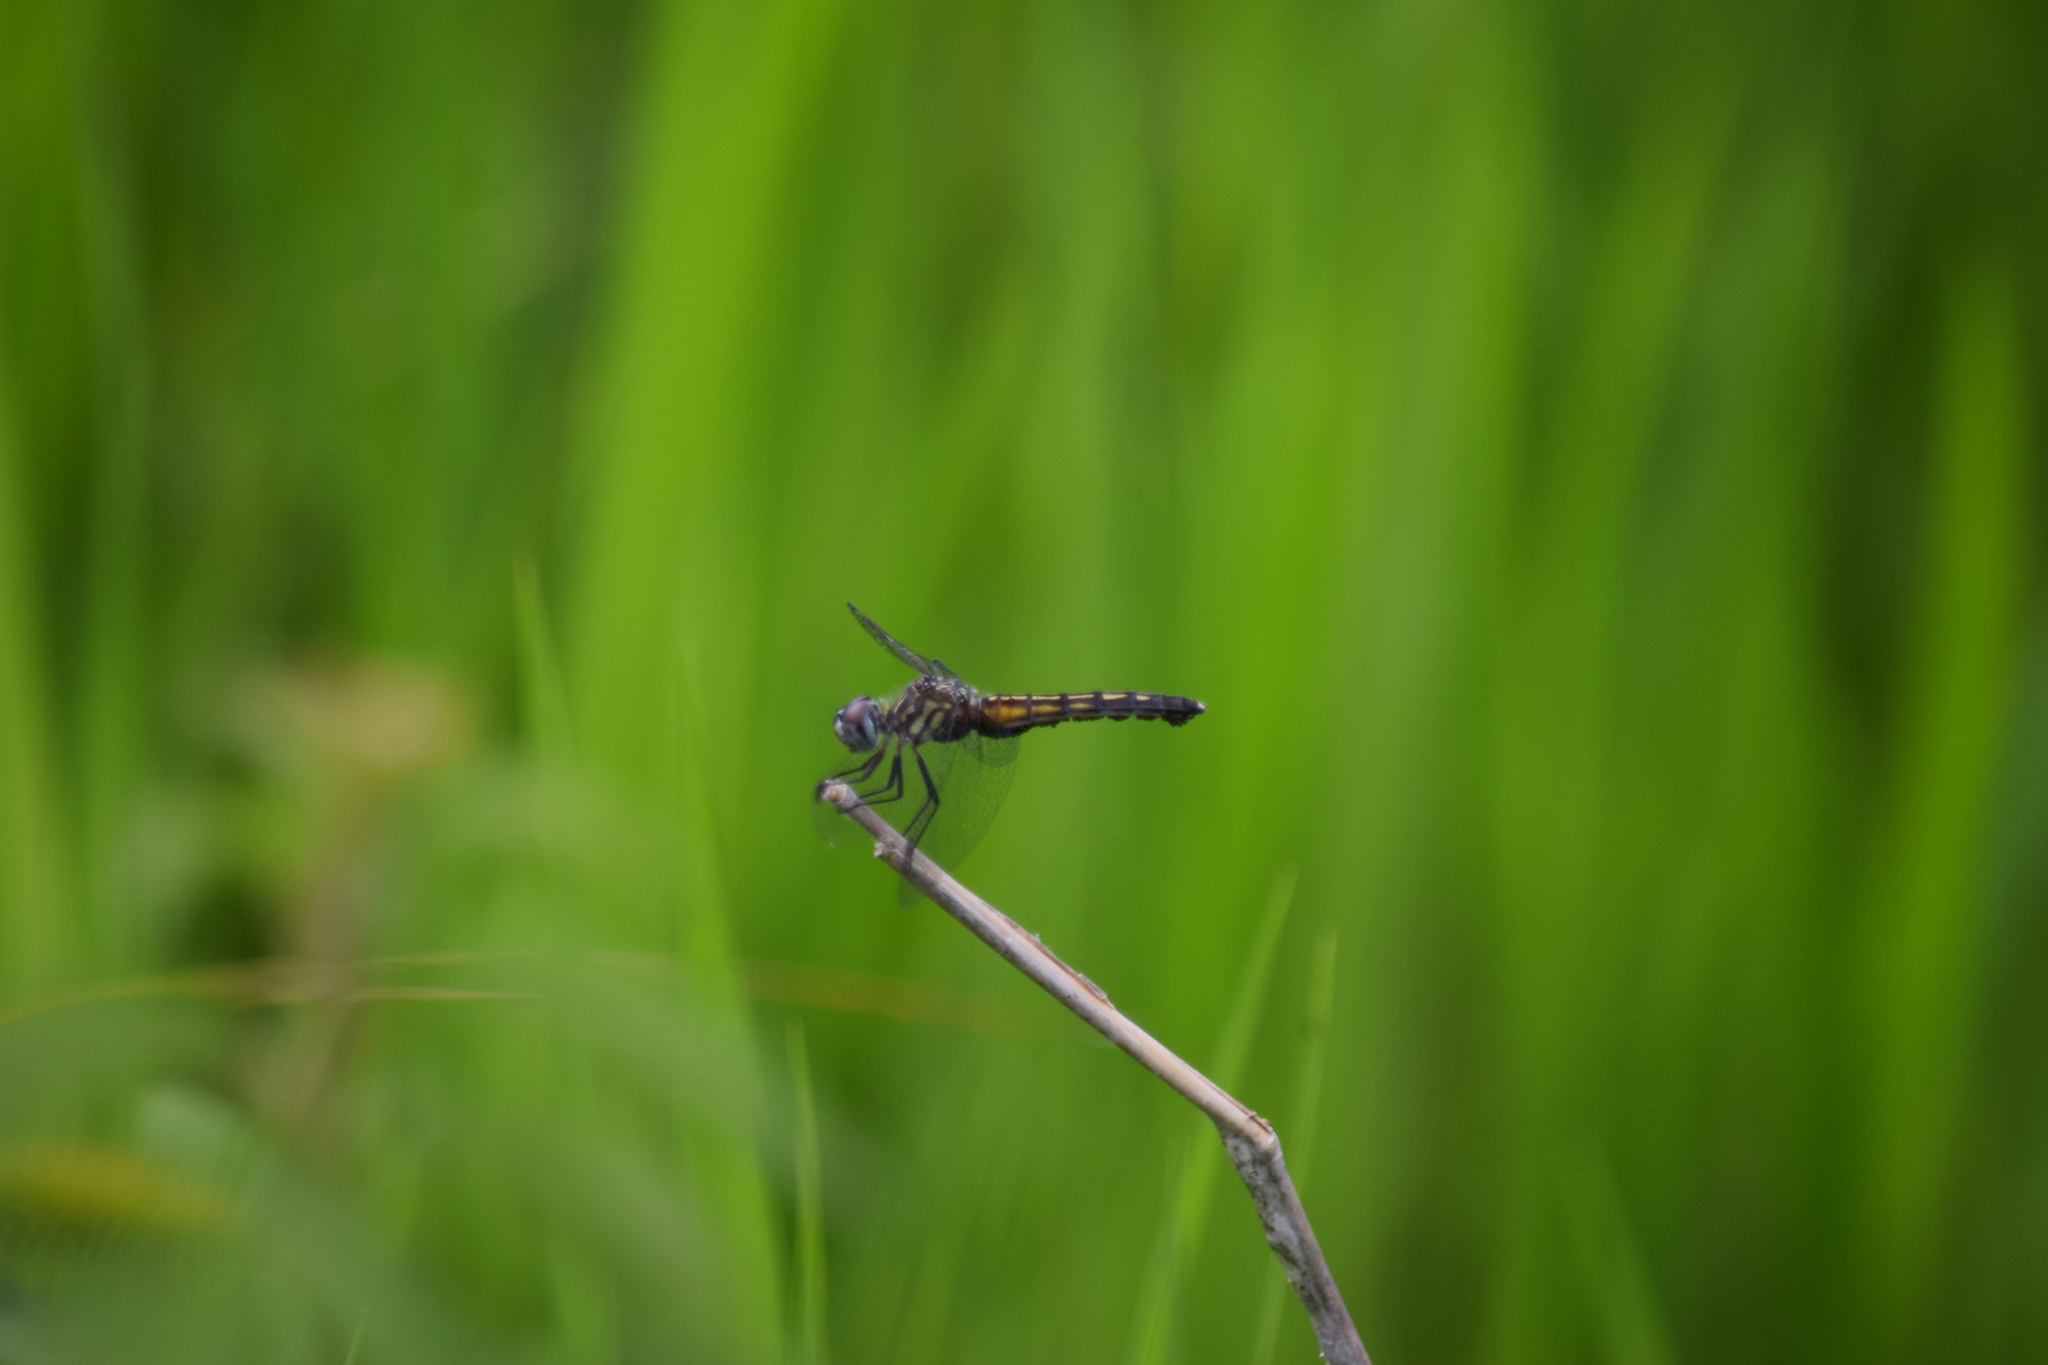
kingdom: Animalia
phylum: Arthropoda
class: Insecta
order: Odonata
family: Libellulidae
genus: Pachydiplax
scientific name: Pachydiplax longipennis
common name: Blue dasher
